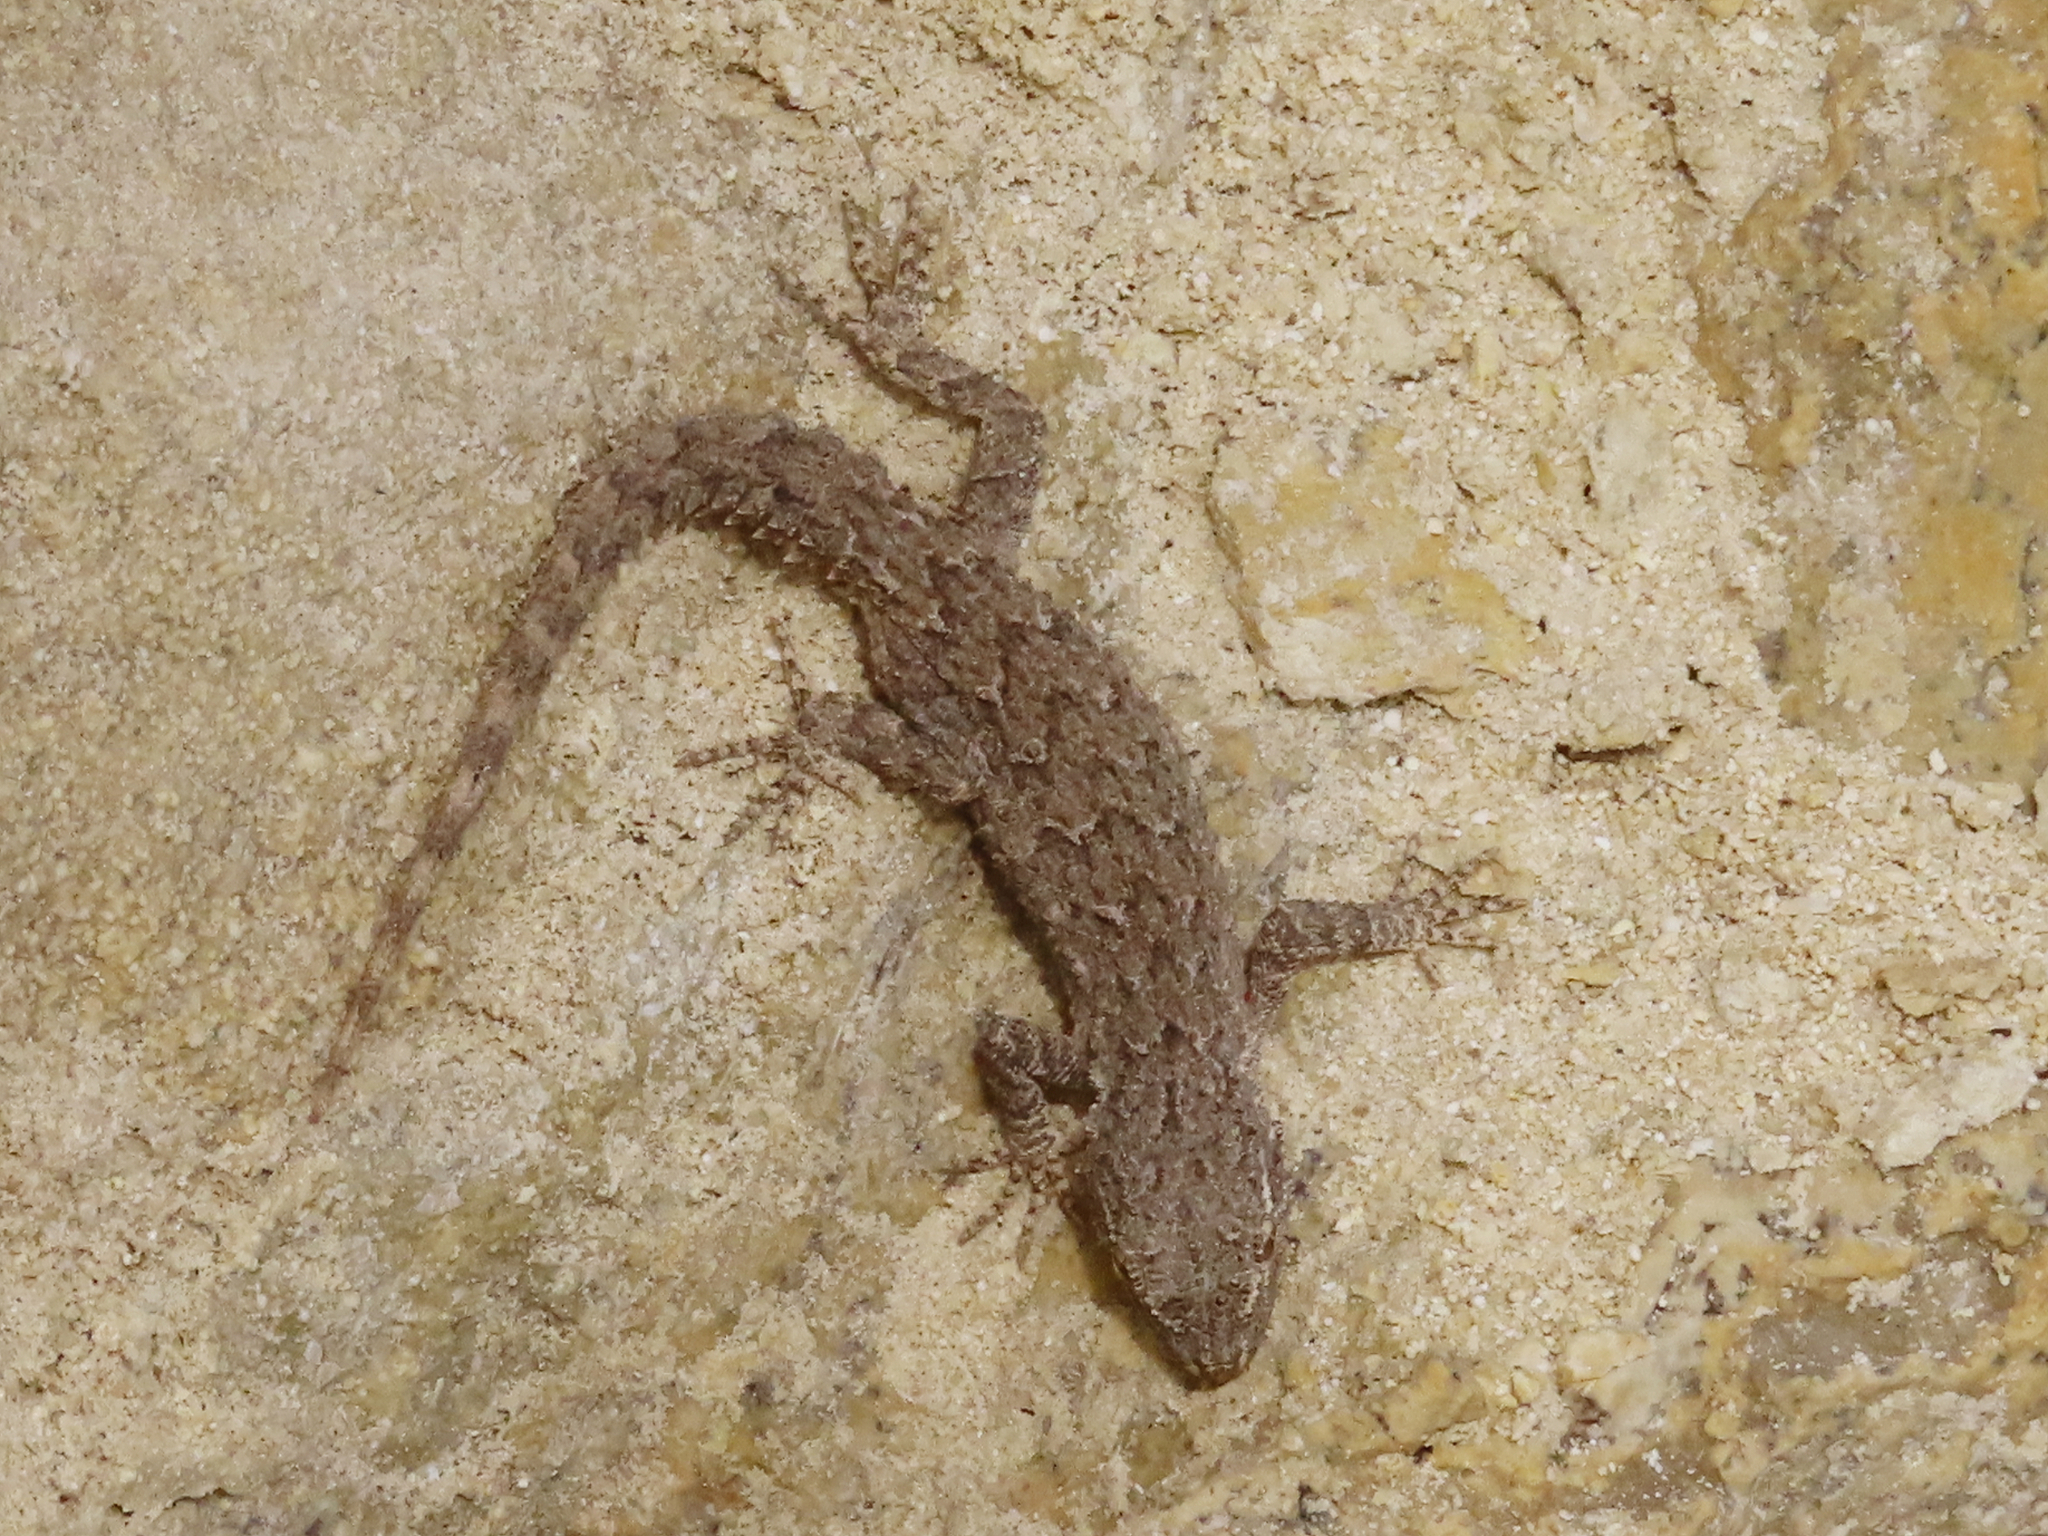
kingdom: Animalia
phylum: Chordata
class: Squamata
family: Gekkonidae
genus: Mediodactylus
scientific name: Mediodactylus russowii
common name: Grey thin-toed gecko
